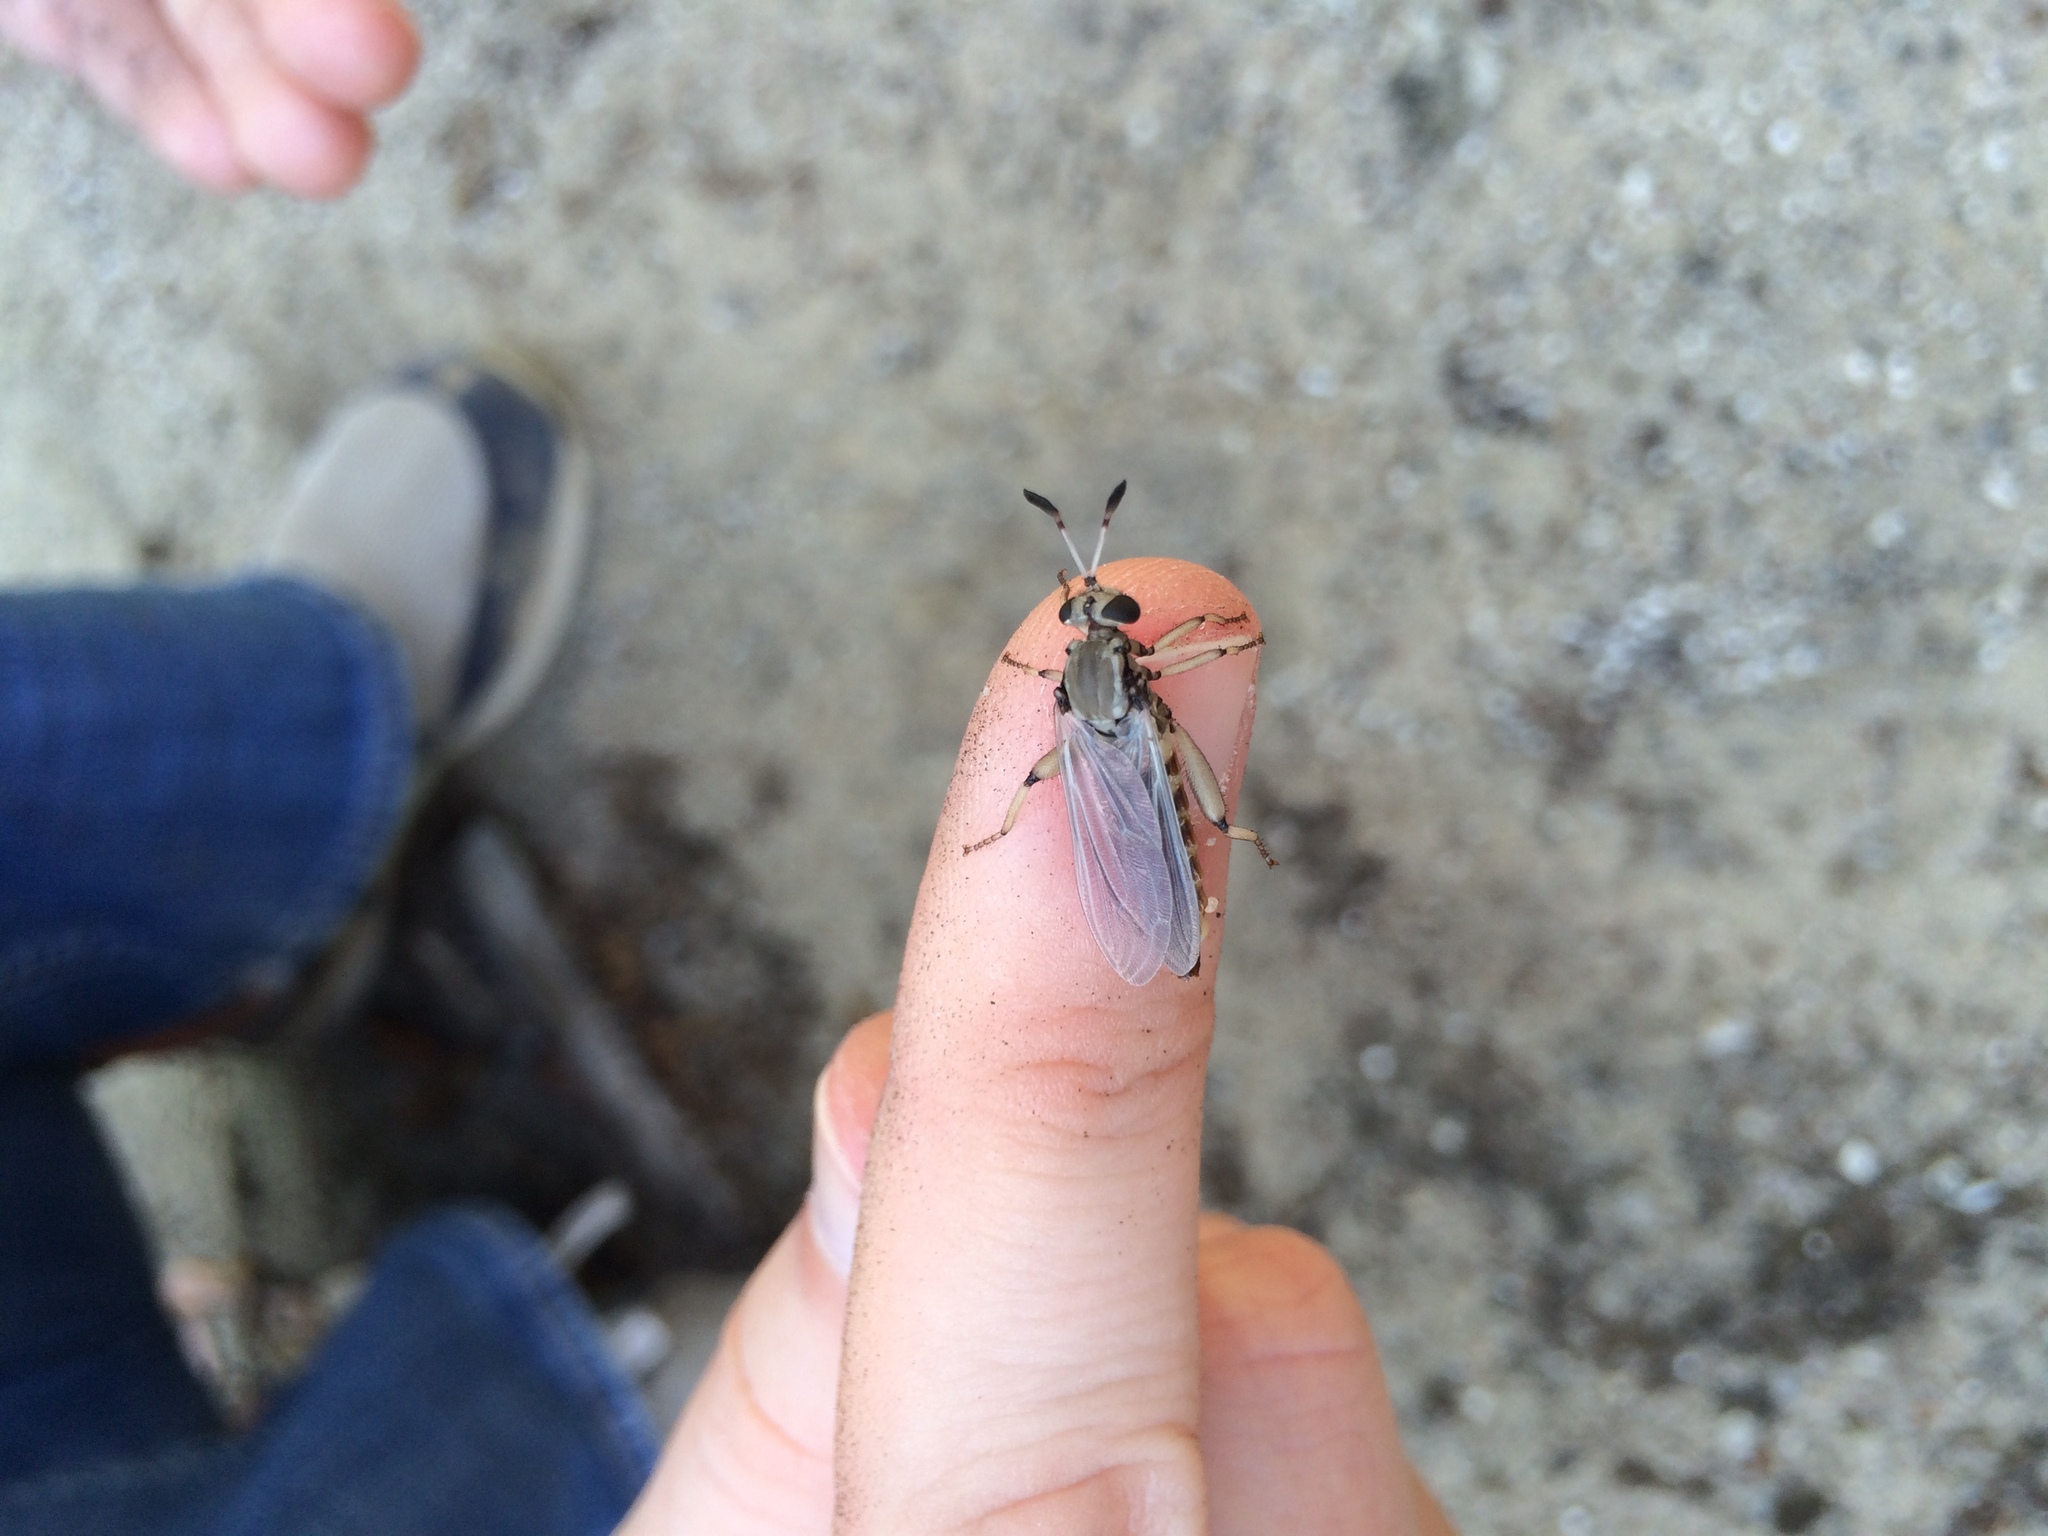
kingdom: Animalia
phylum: Arthropoda
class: Insecta
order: Diptera
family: Mydidae
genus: Phyllomydas
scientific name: Phyllomydas parvulus
